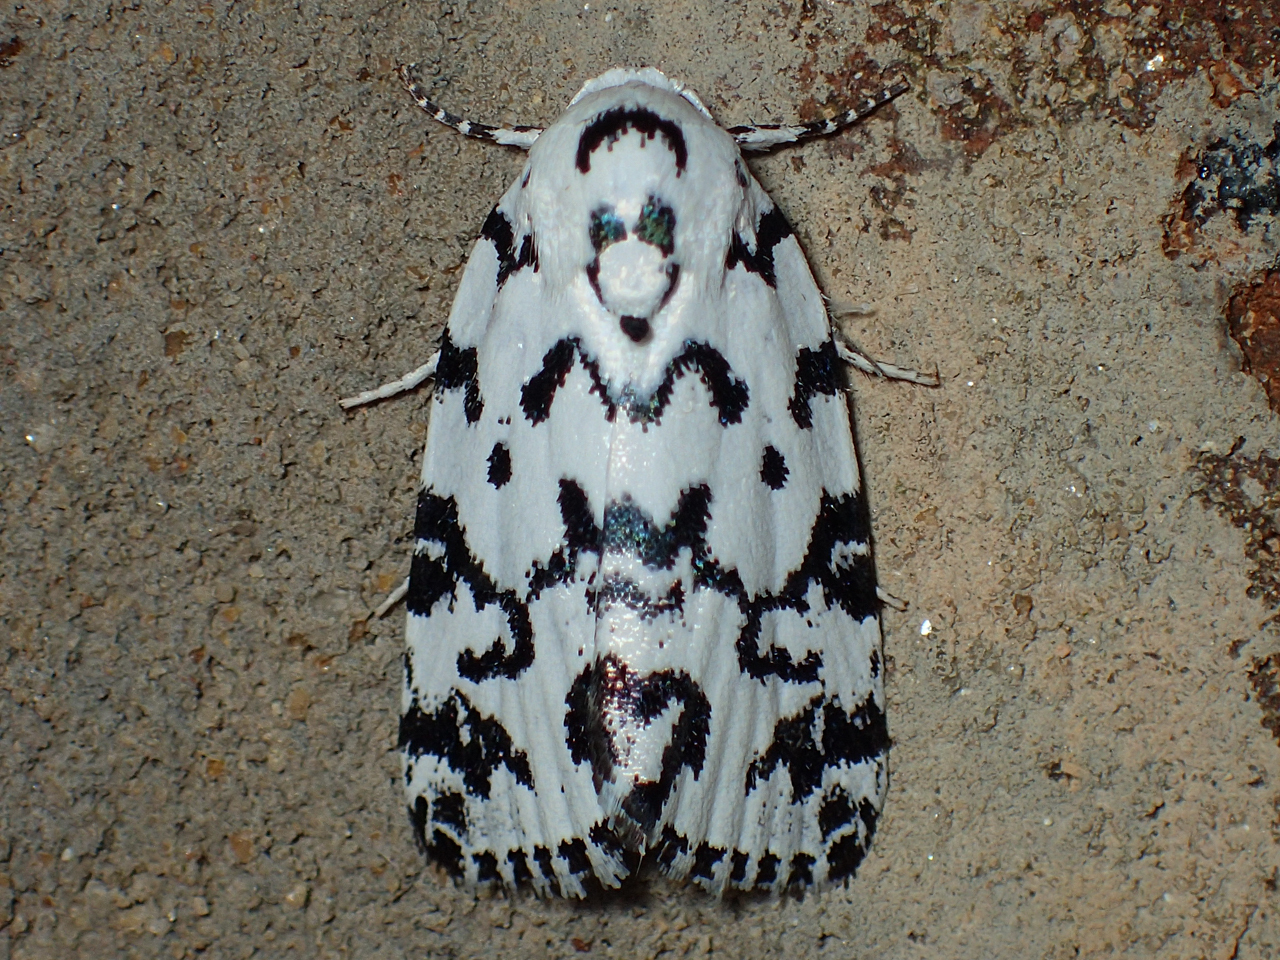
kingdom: Animalia
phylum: Arthropoda
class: Insecta
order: Lepidoptera
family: Noctuidae
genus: Polygrammate
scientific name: Polygrammate hebraeicum
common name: Hebrew moth
